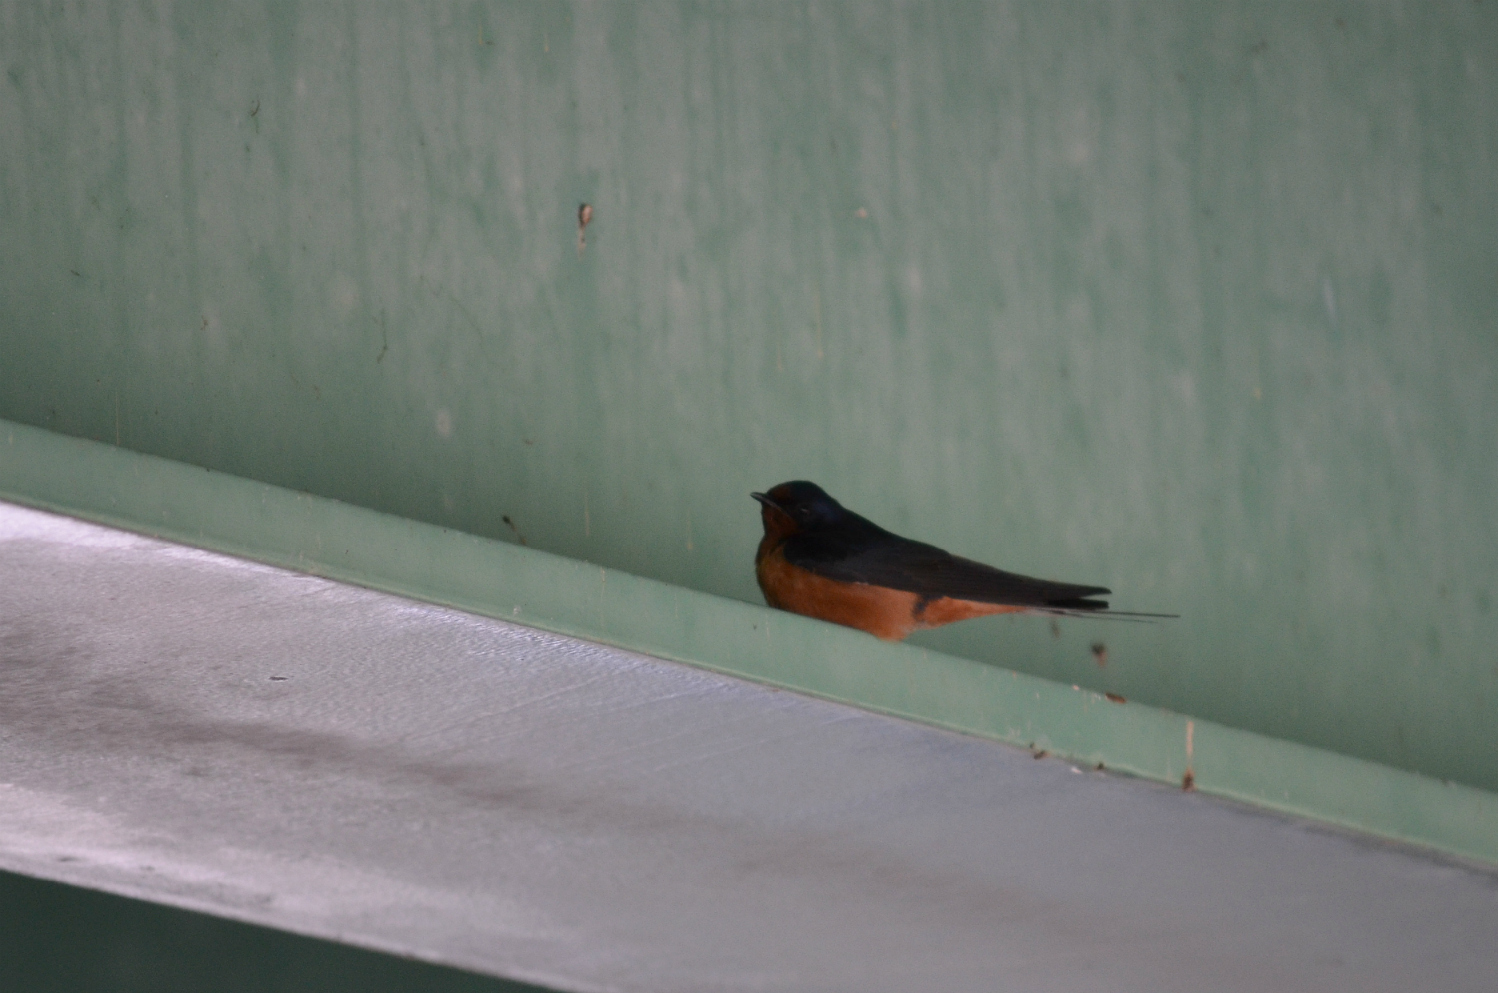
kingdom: Animalia
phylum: Chordata
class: Aves
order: Passeriformes
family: Hirundinidae
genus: Hirundo
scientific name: Hirundo rustica
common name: Barn swallow
